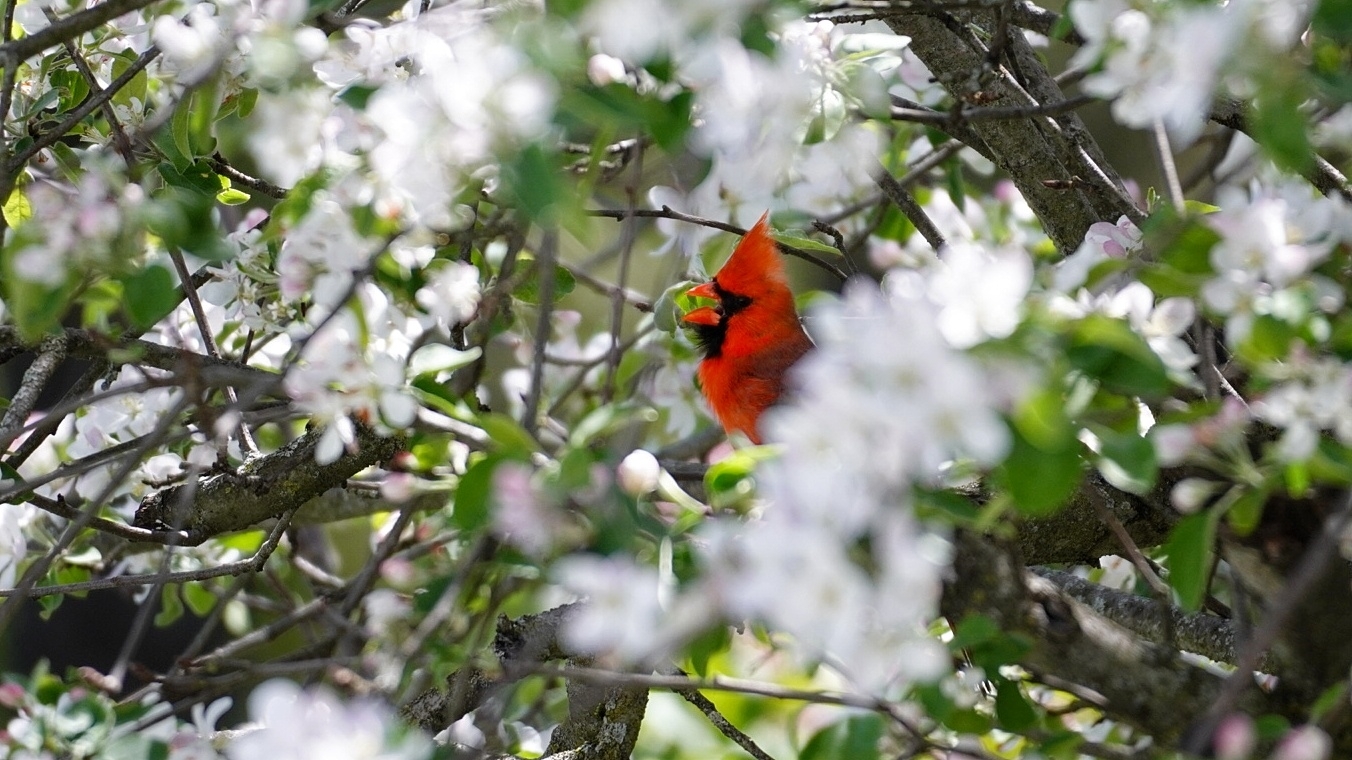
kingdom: Animalia
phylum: Chordata
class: Aves
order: Passeriformes
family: Cardinalidae
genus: Cardinalis
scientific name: Cardinalis cardinalis
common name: Northern cardinal
